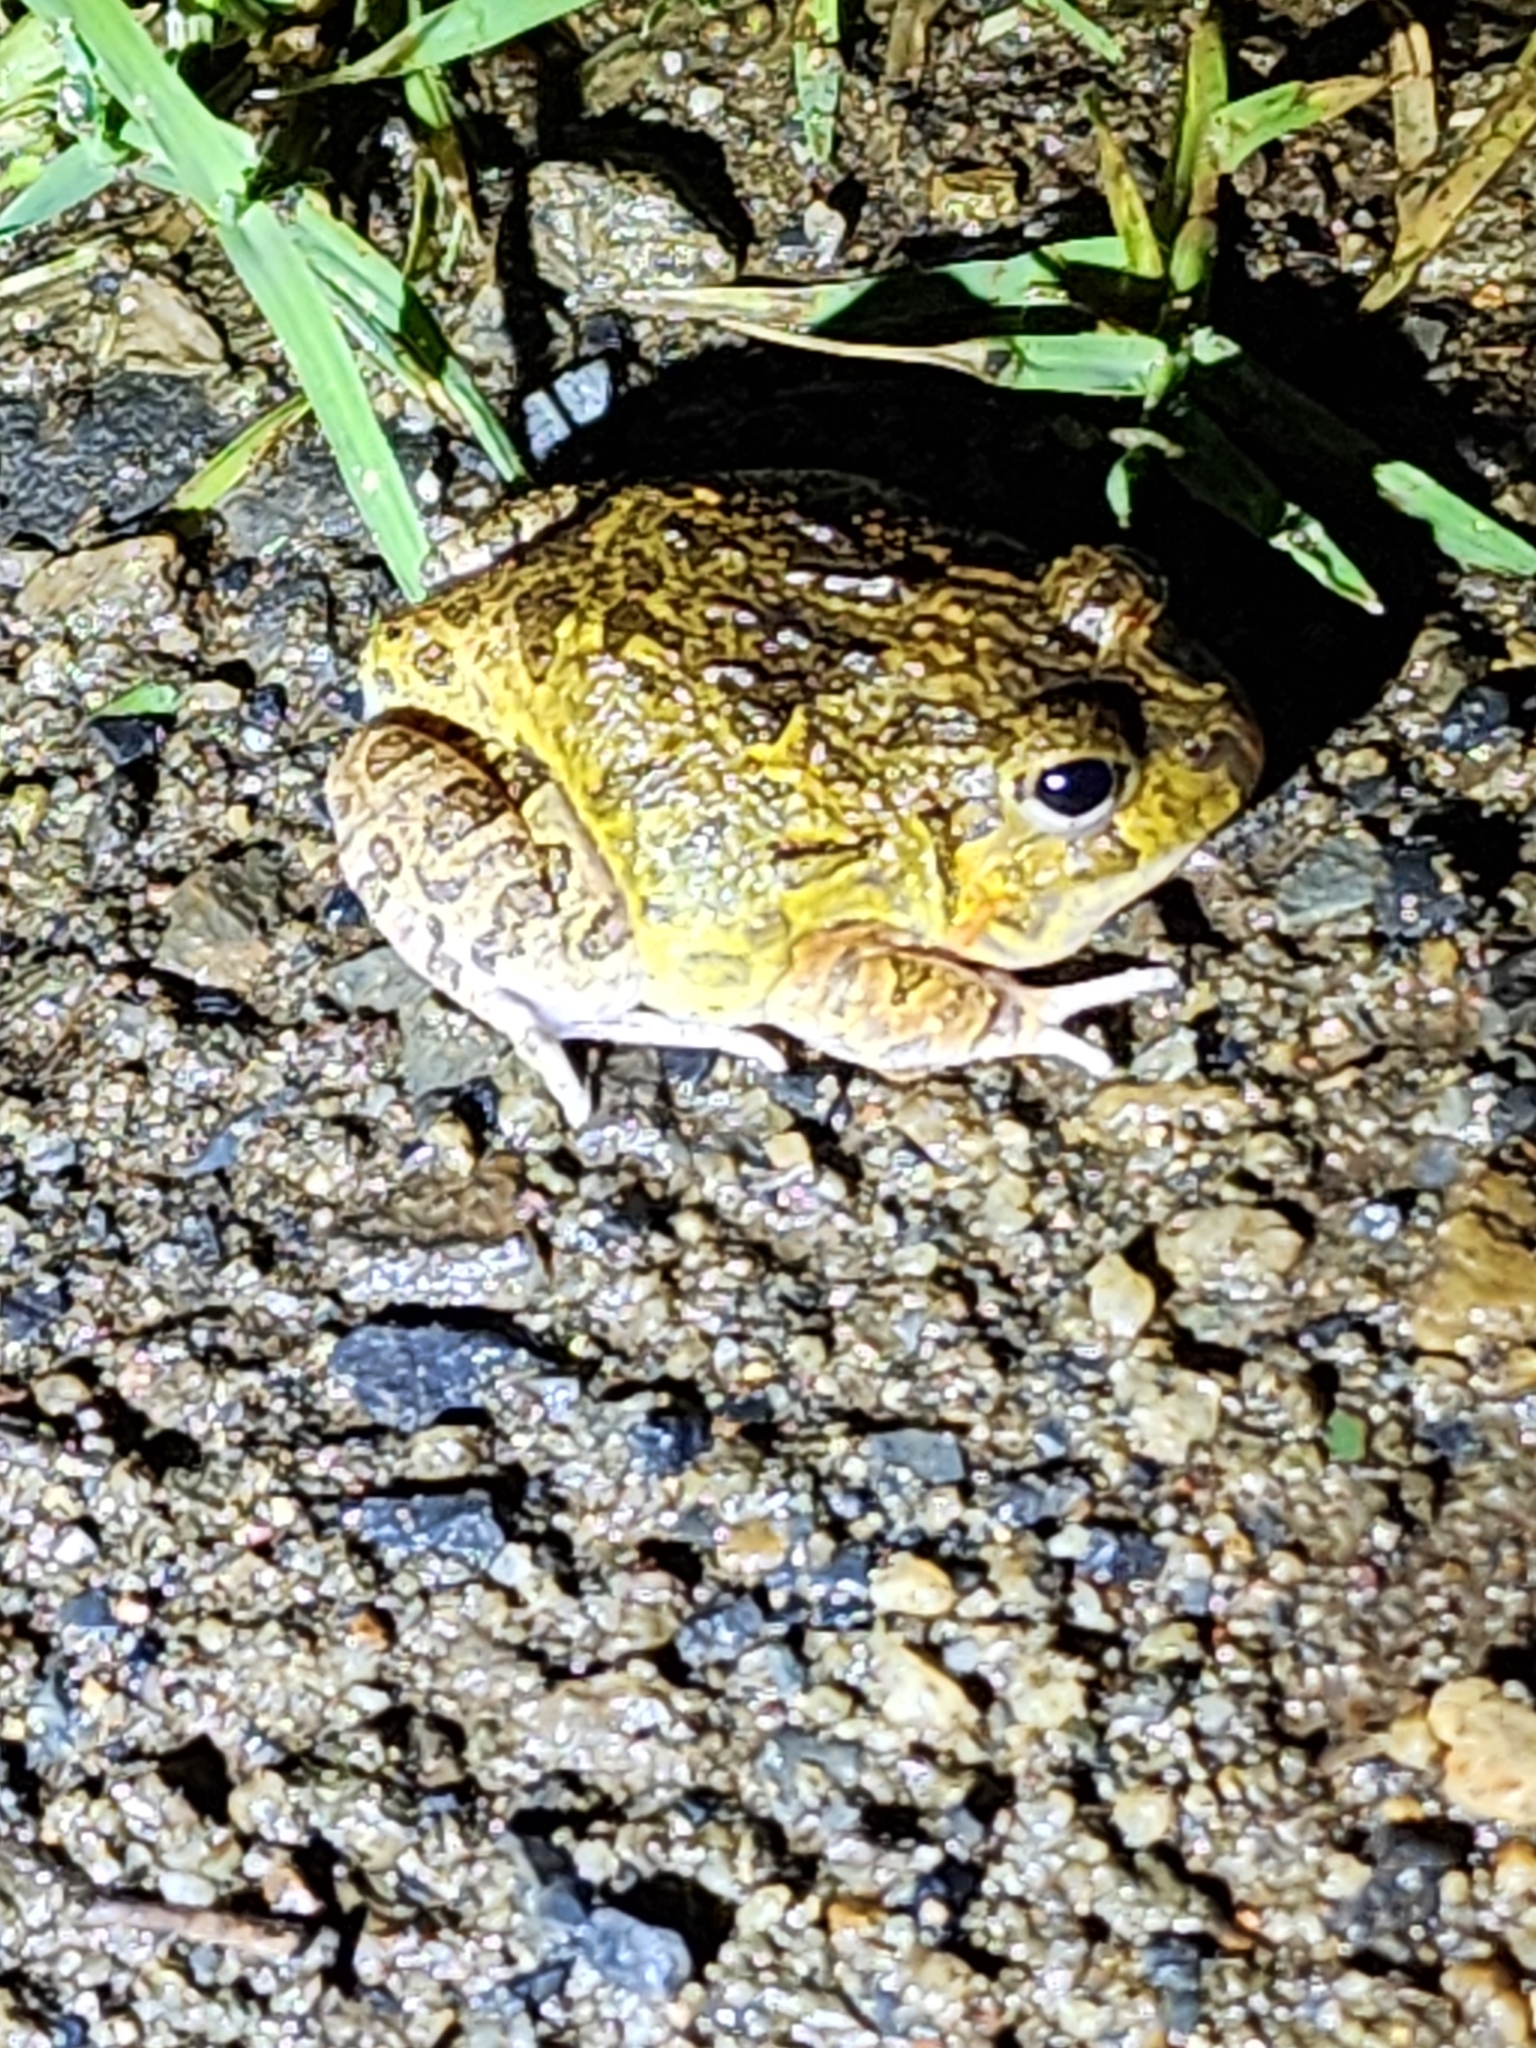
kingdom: Animalia
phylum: Chordata
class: Amphibia
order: Anura
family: Limnodynastidae
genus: Platyplectrum
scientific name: Platyplectrum ornatum
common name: Ornate burrowing frog
